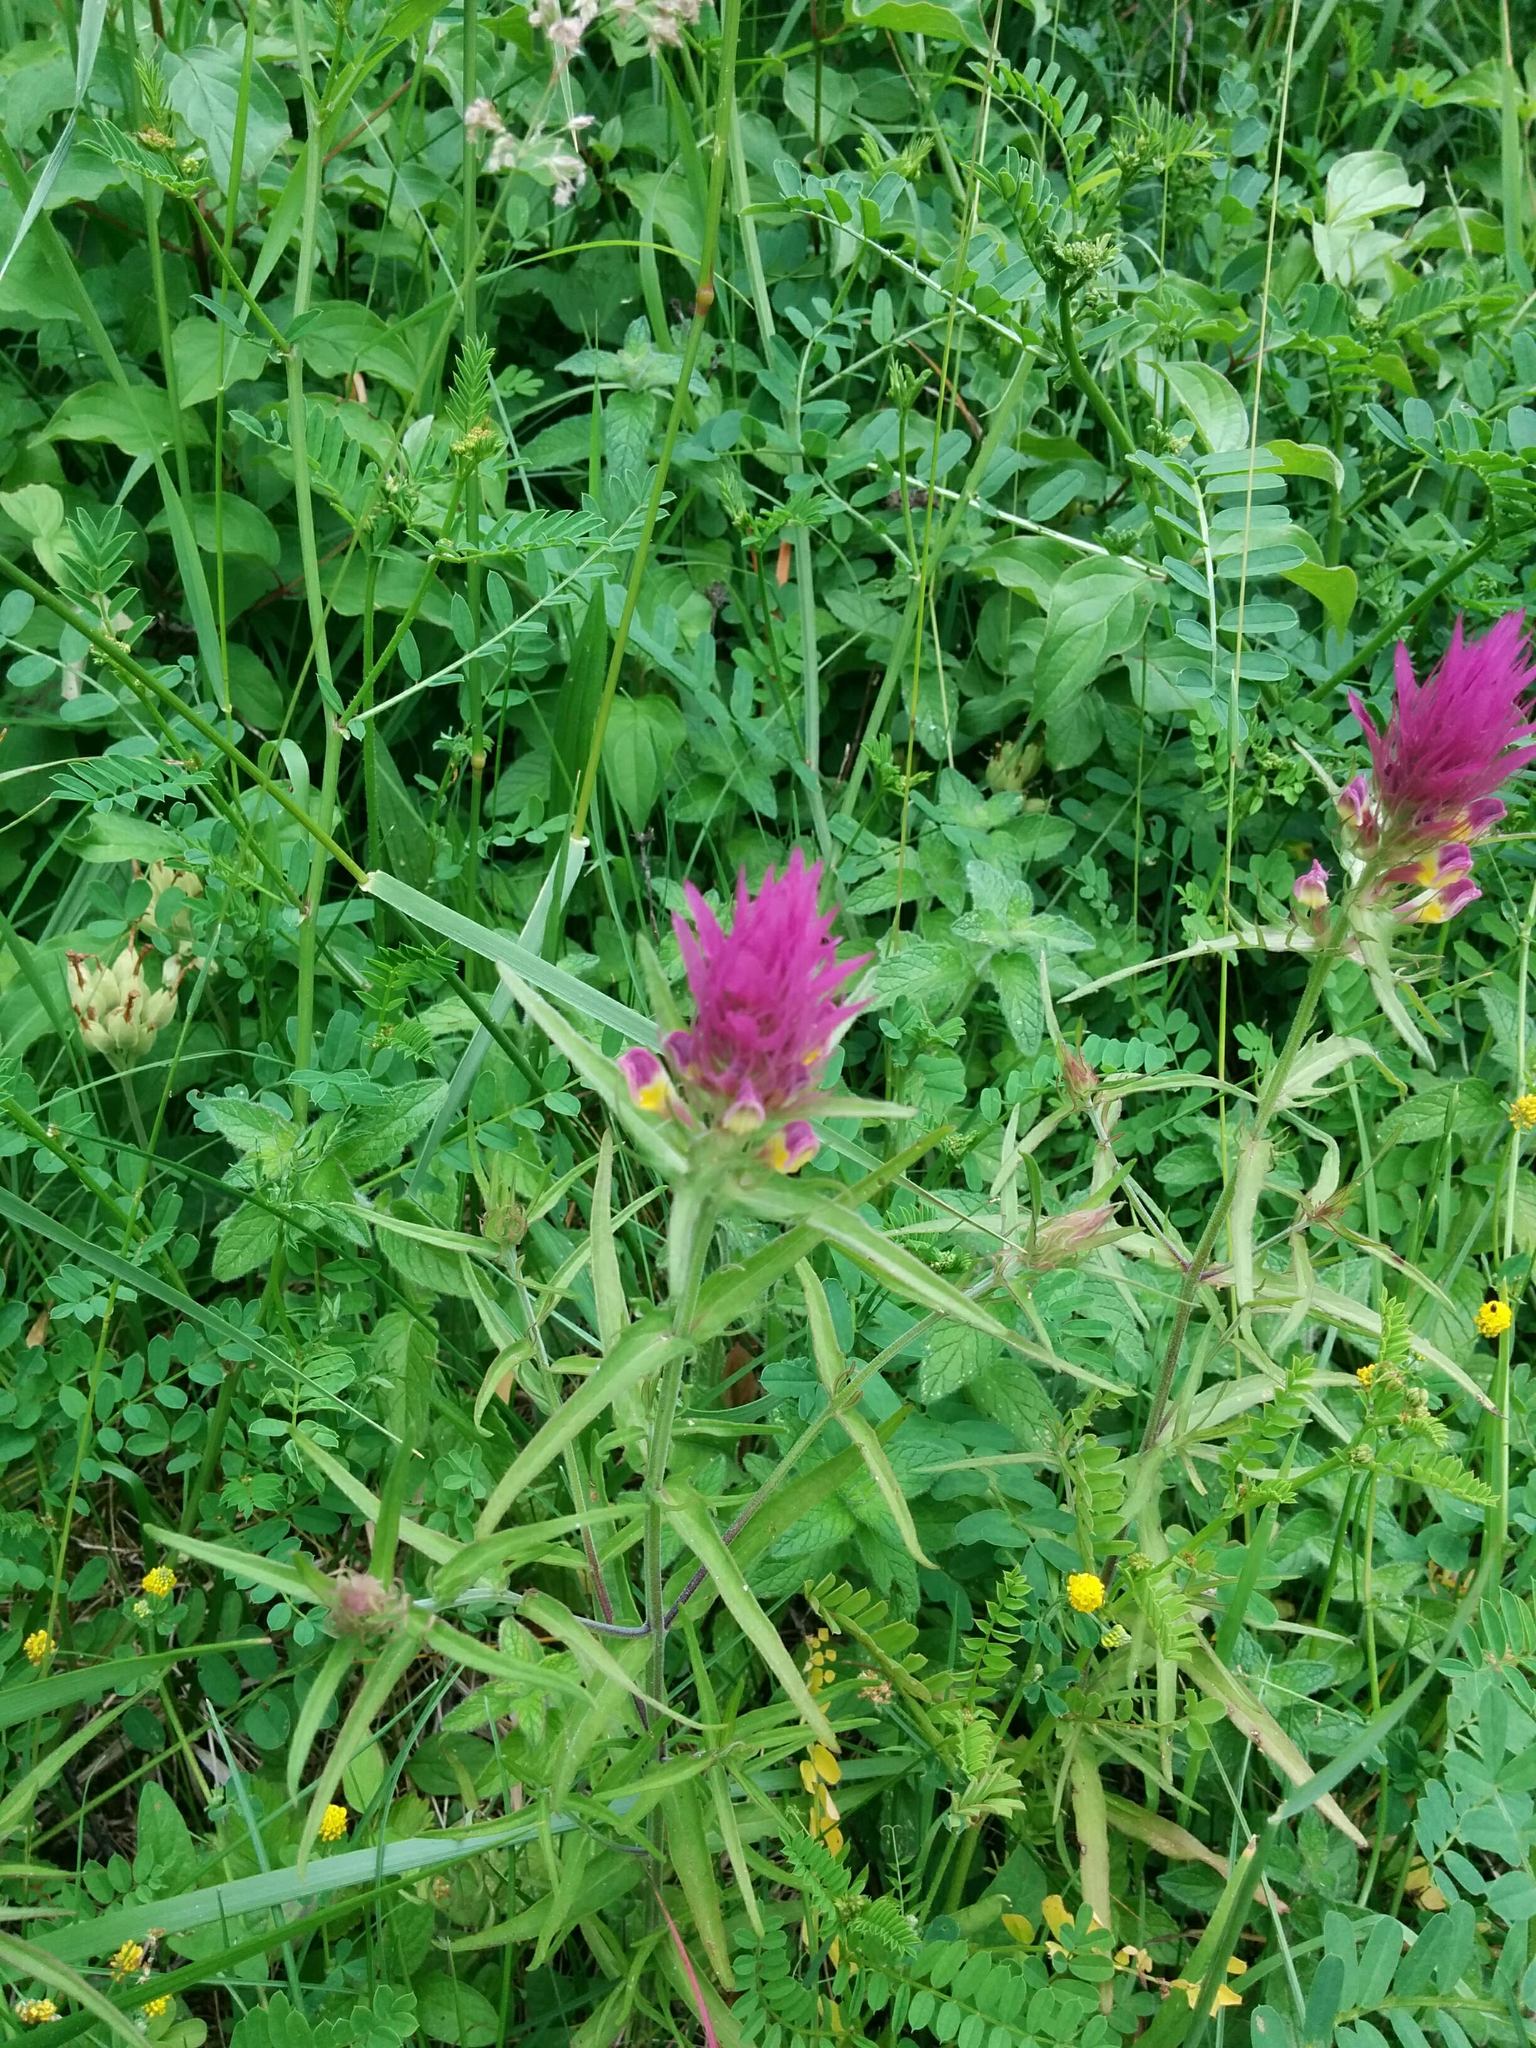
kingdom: Plantae
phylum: Tracheophyta
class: Magnoliopsida
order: Lamiales
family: Orobanchaceae
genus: Melampyrum
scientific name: Melampyrum arvense
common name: Field cow-wheat
